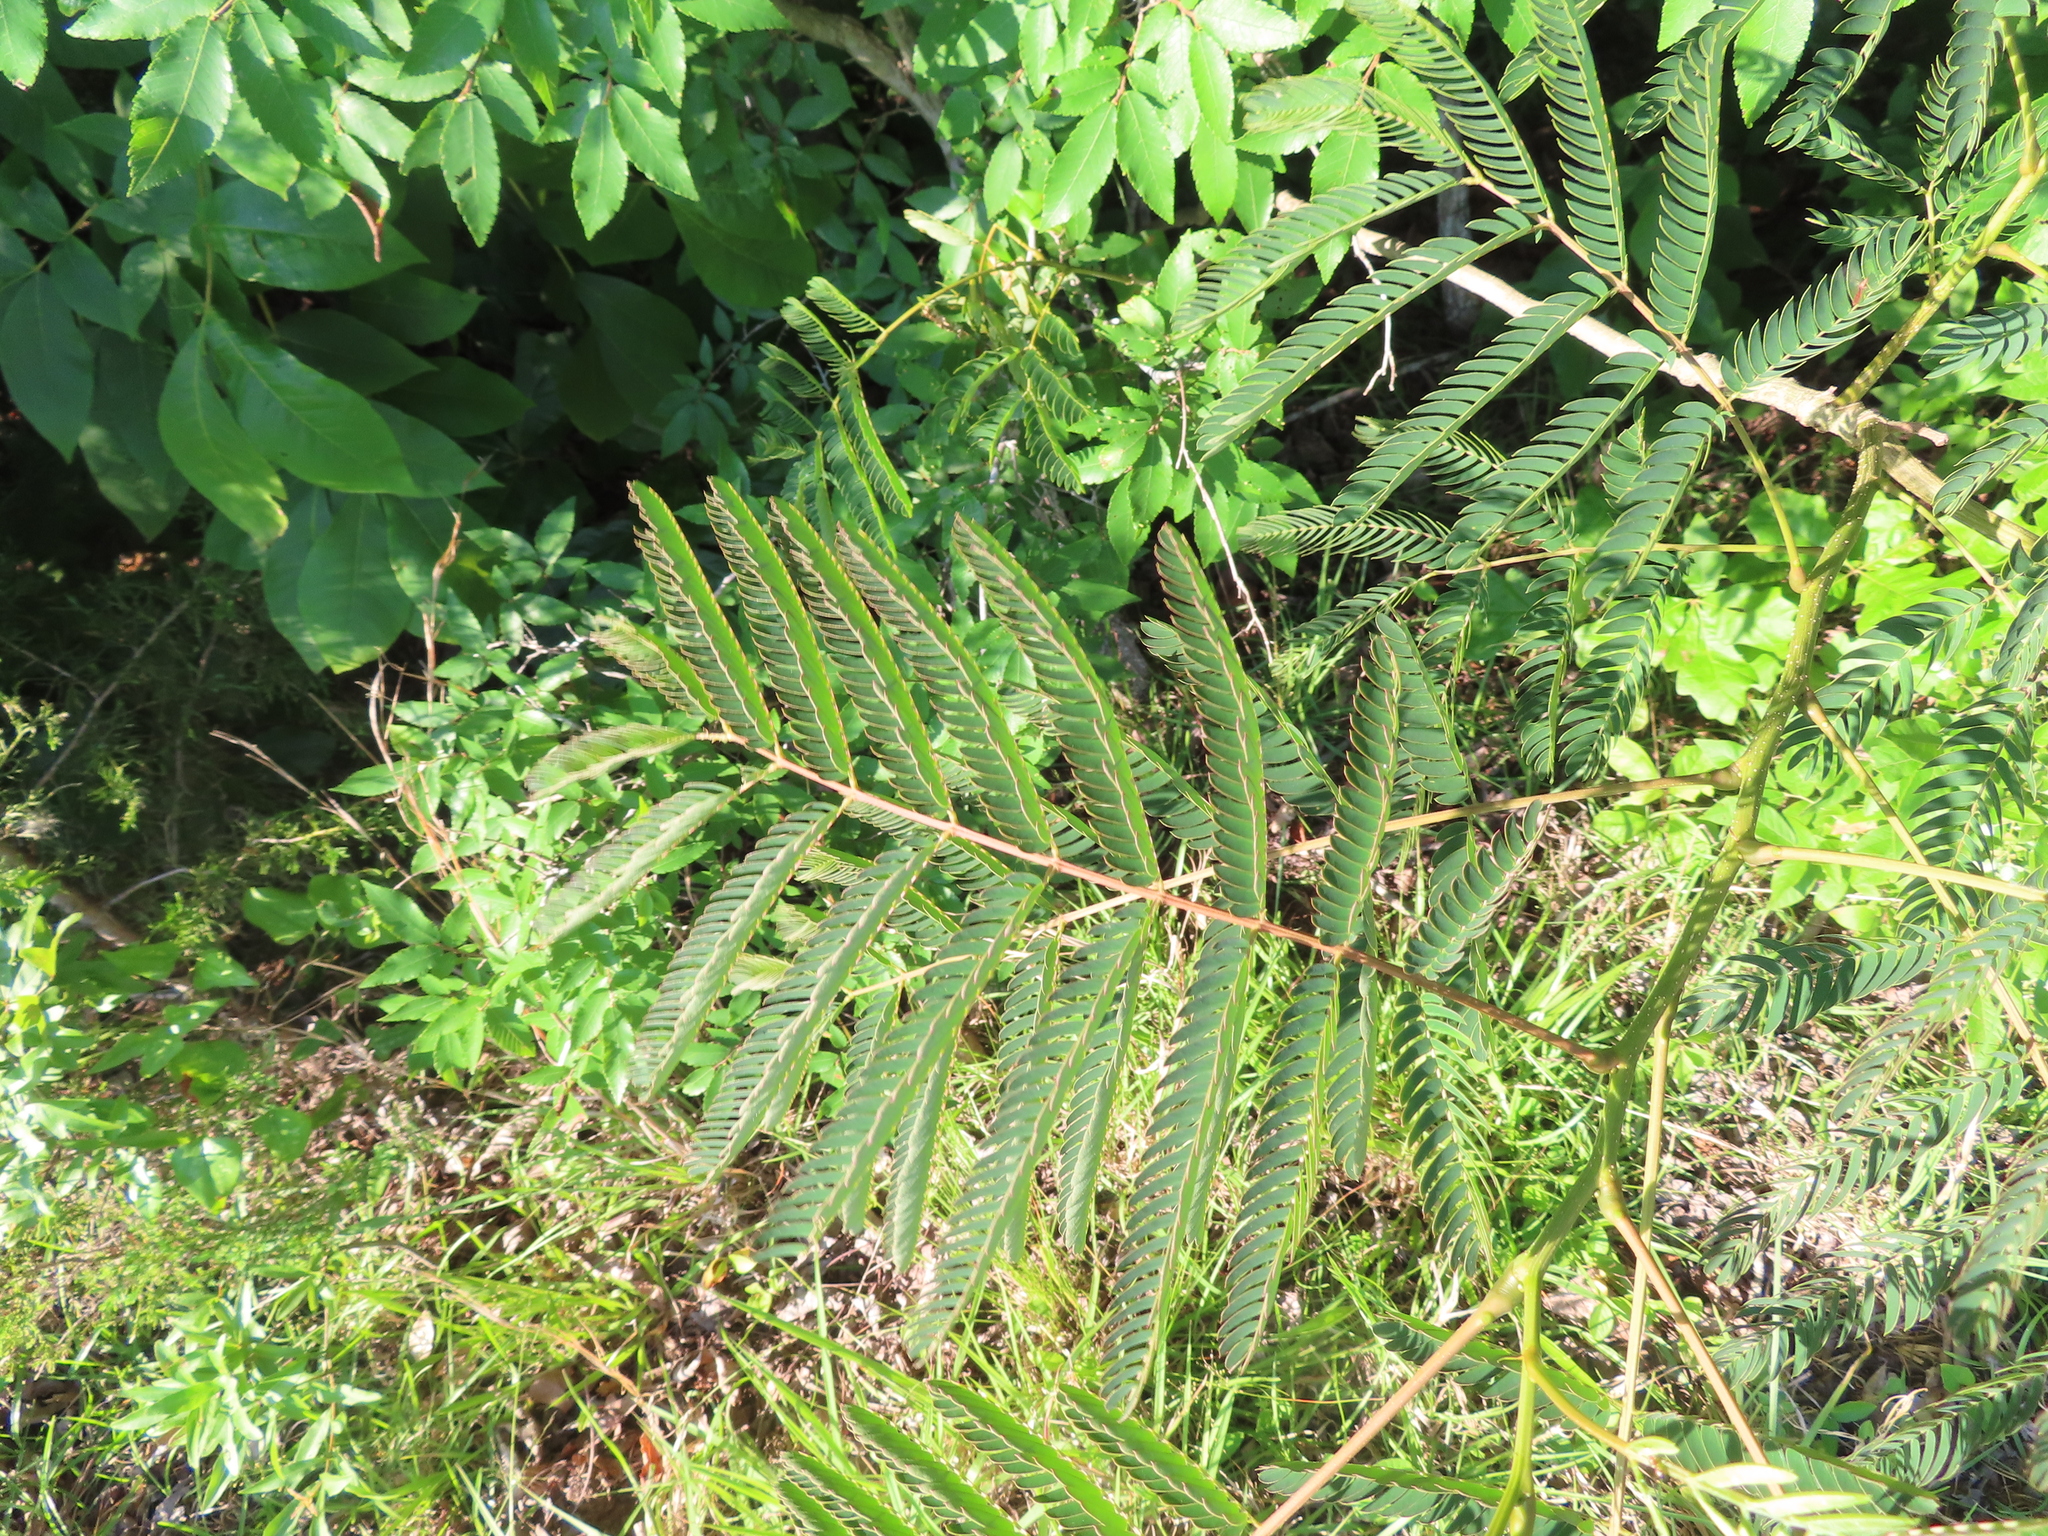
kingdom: Plantae
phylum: Tracheophyta
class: Magnoliopsida
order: Fabales
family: Fabaceae
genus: Albizia
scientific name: Albizia julibrissin
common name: Silktree
